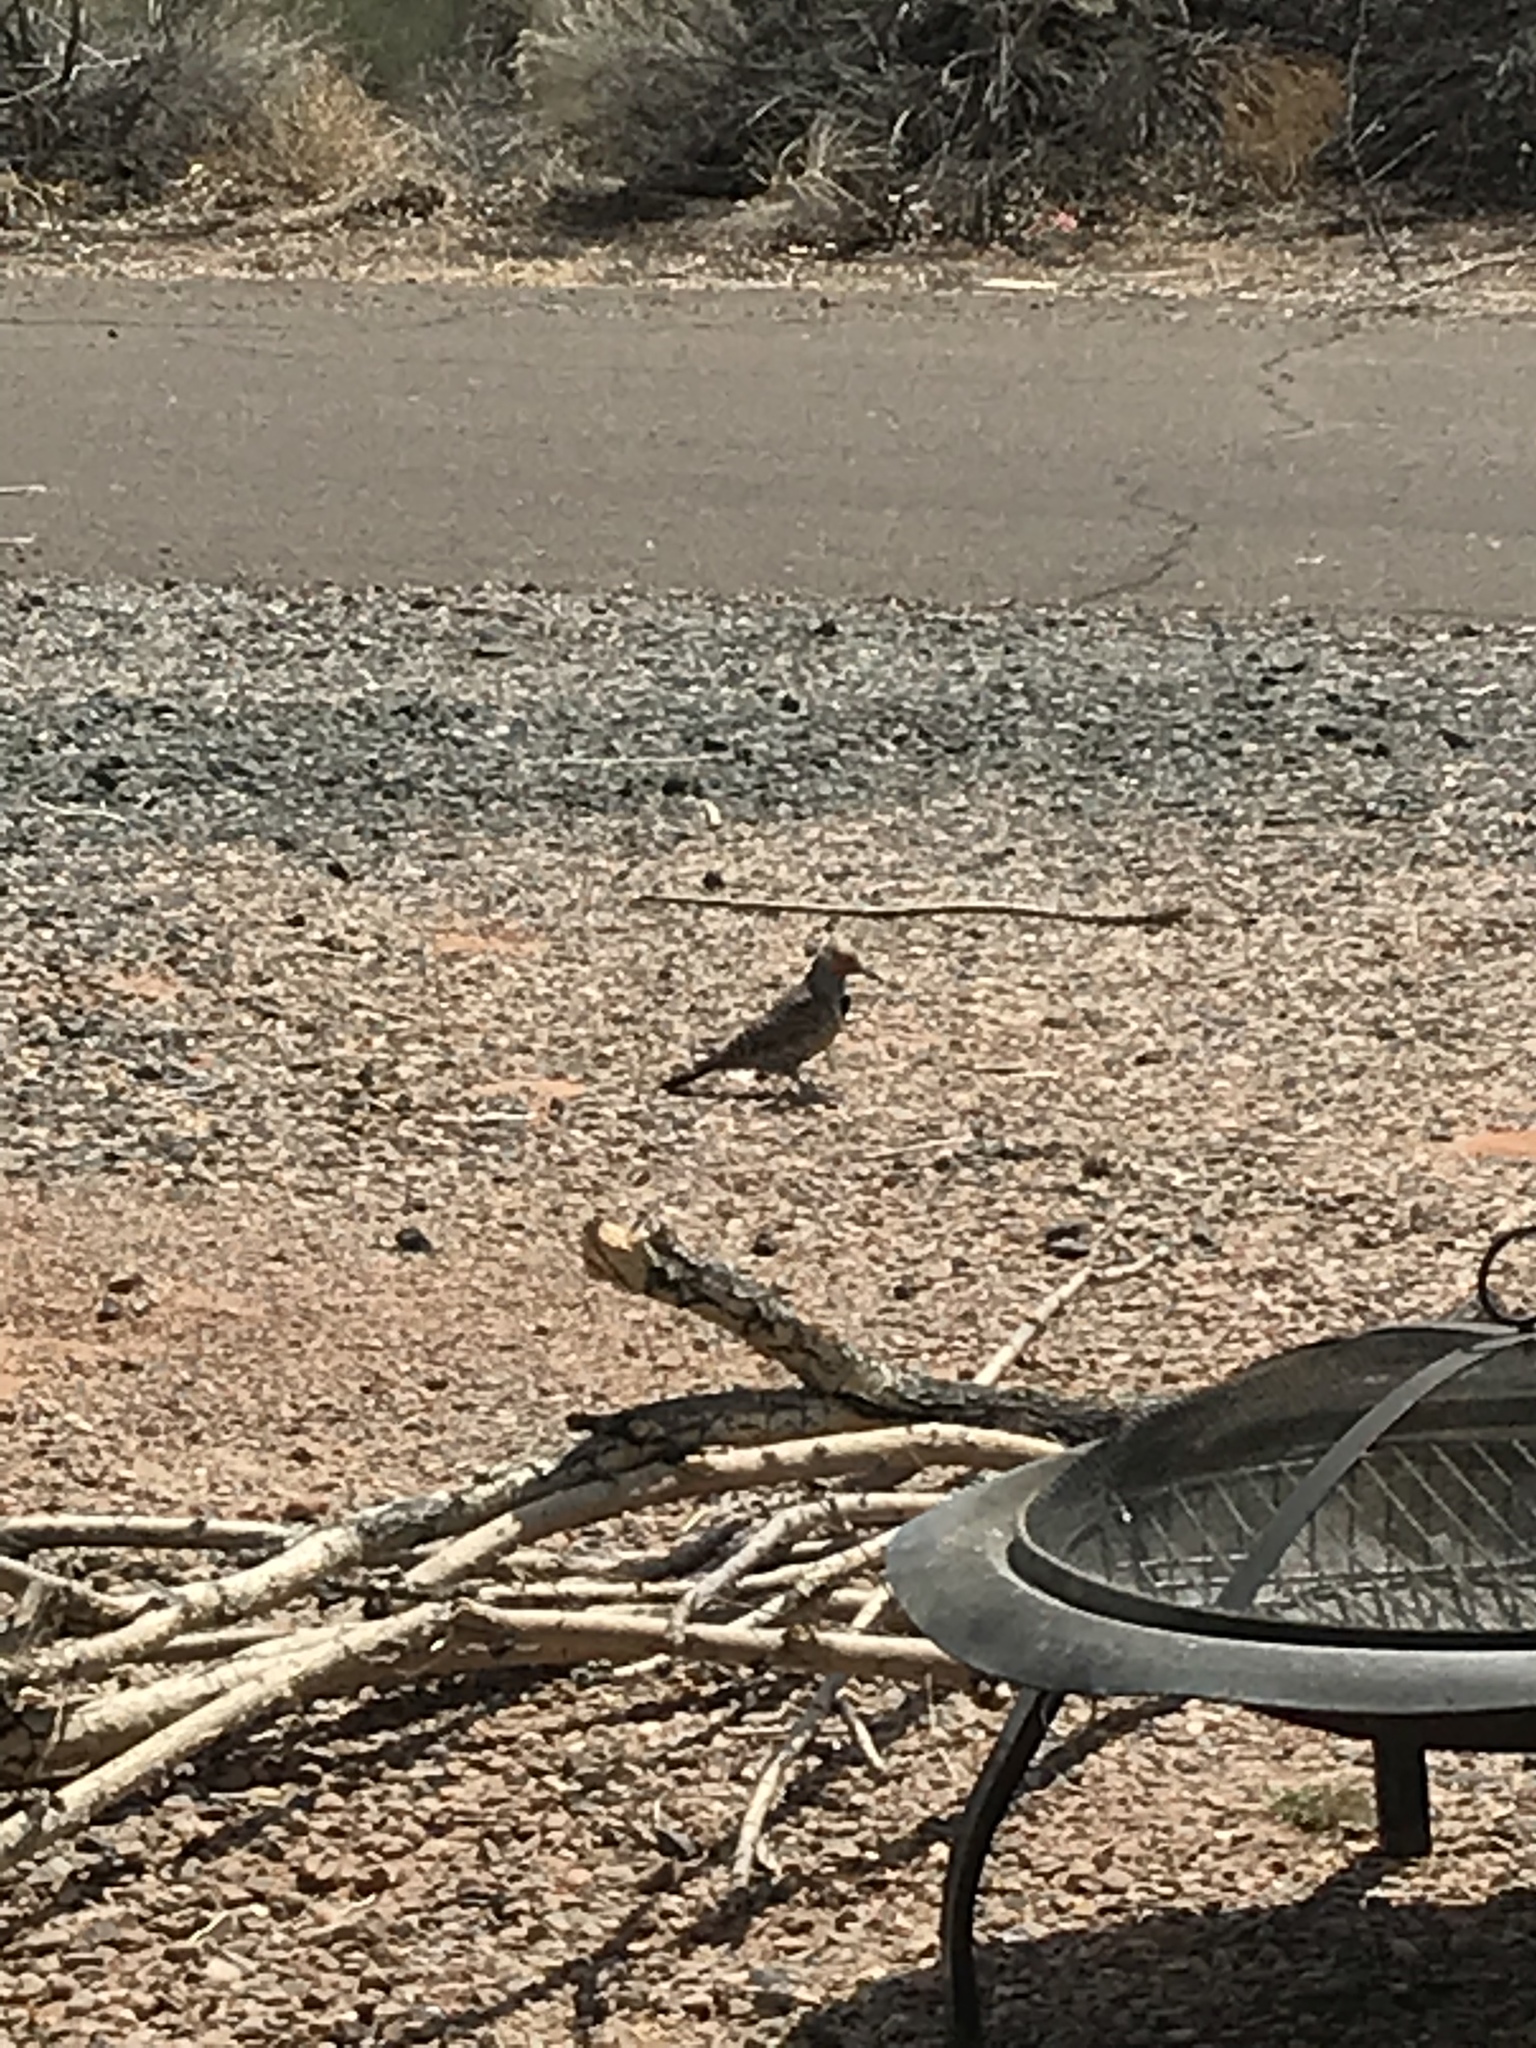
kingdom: Animalia
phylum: Chordata
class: Aves
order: Piciformes
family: Picidae
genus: Colaptes
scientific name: Colaptes auratus
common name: Northern flicker
